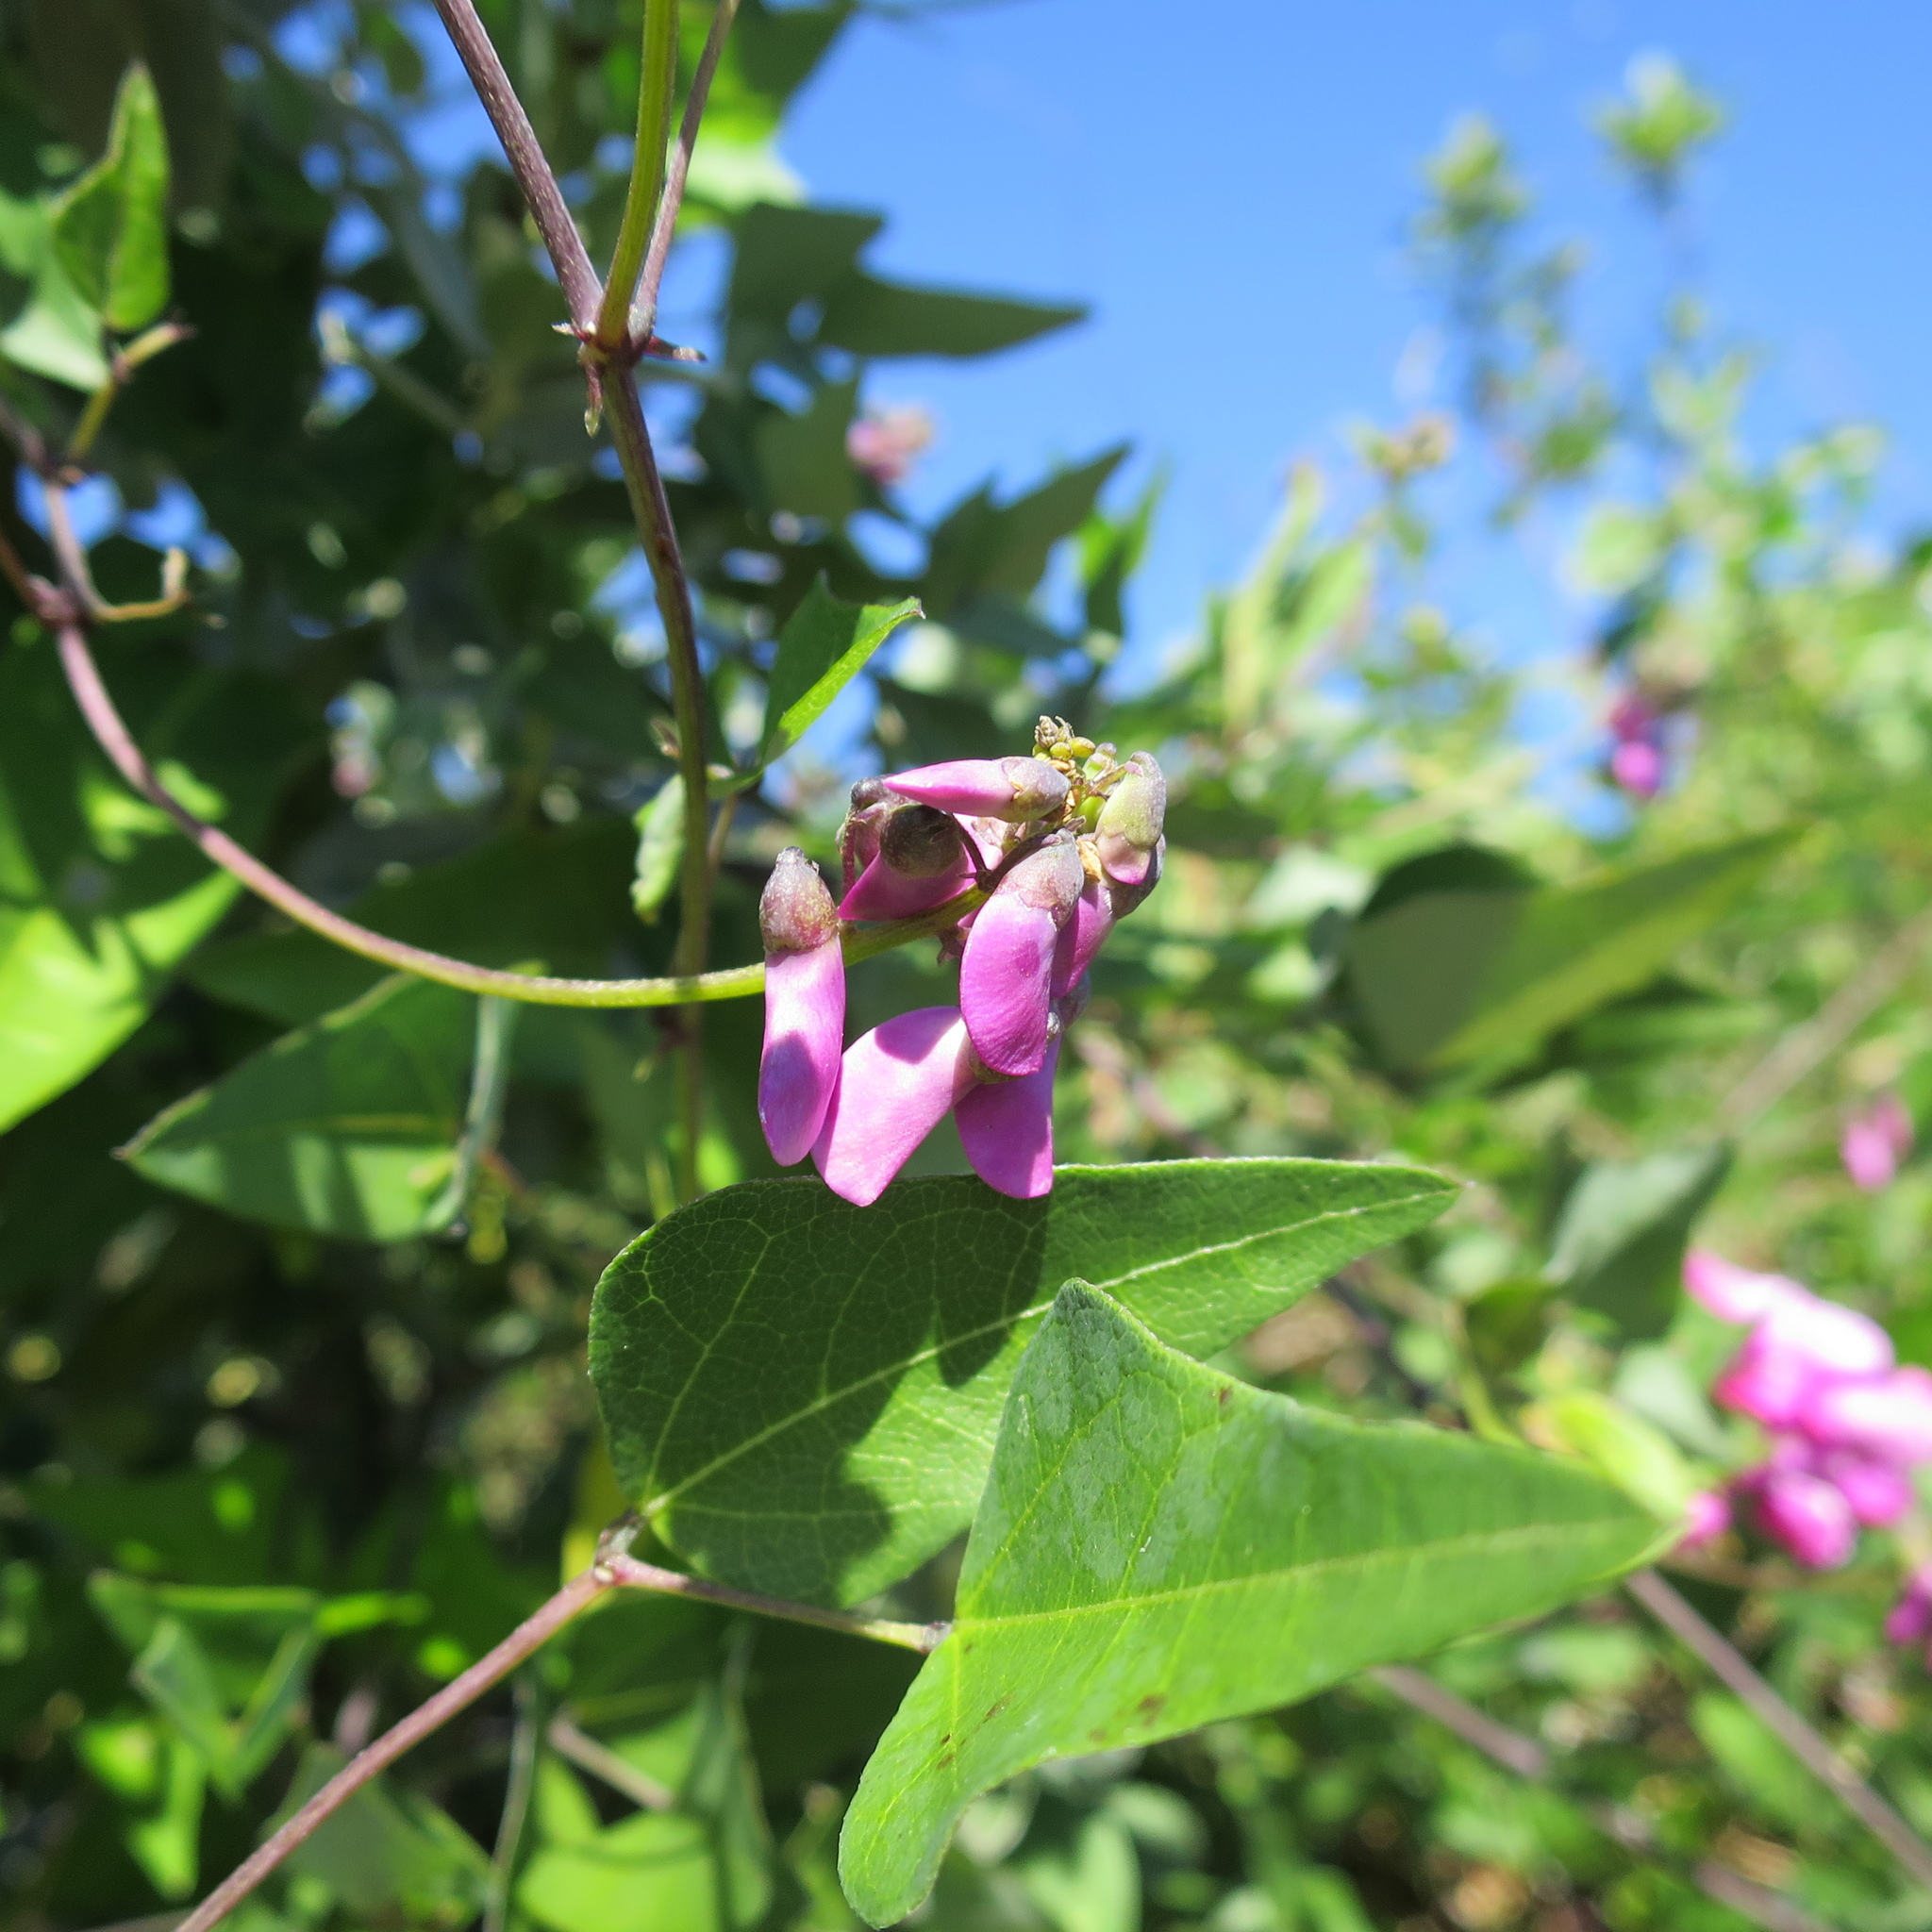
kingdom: Plantae
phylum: Tracheophyta
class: Magnoliopsida
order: Fabales
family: Fabaceae
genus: Dipogon
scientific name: Dipogon lignosus
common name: Okie bean
